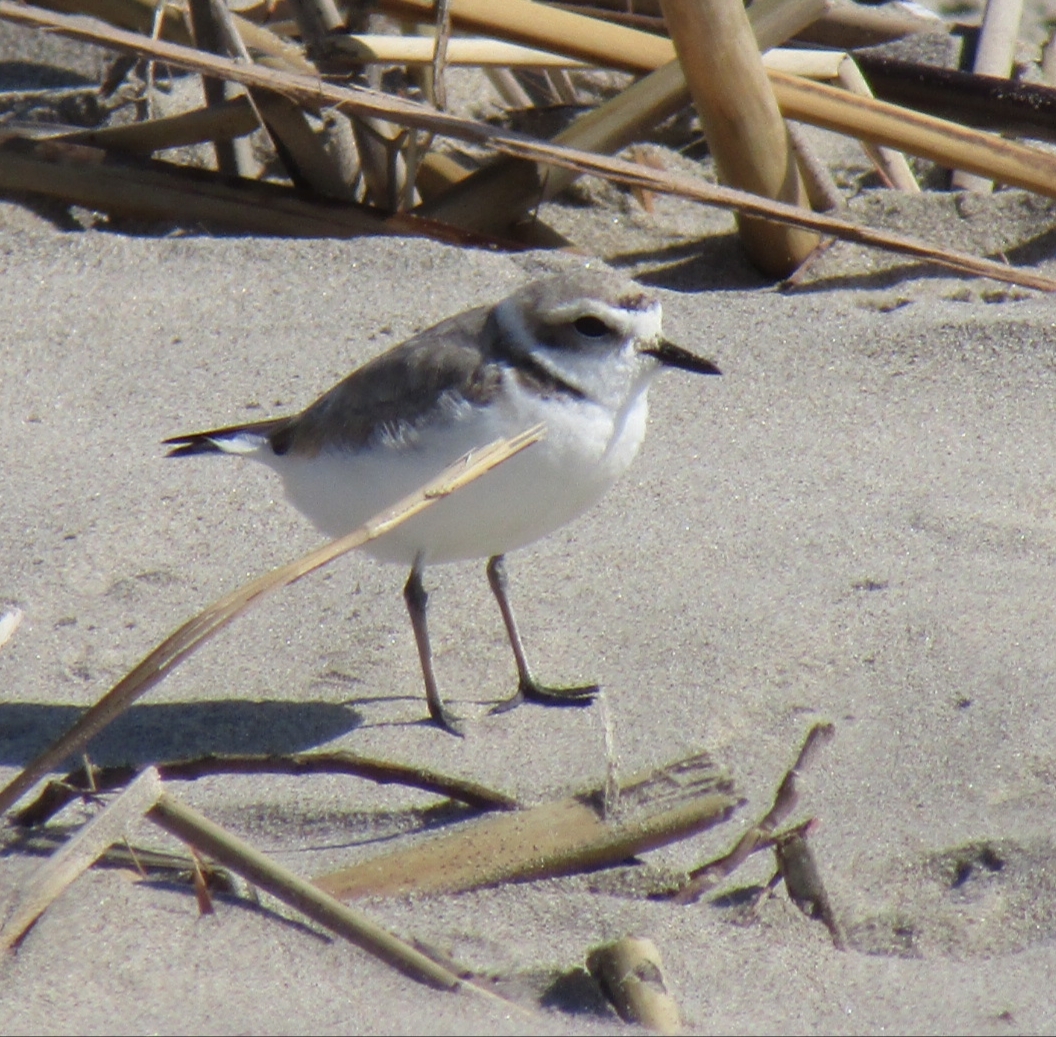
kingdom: Animalia
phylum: Chordata
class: Aves
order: Charadriiformes
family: Charadriidae
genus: Anarhynchus
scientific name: Anarhynchus
